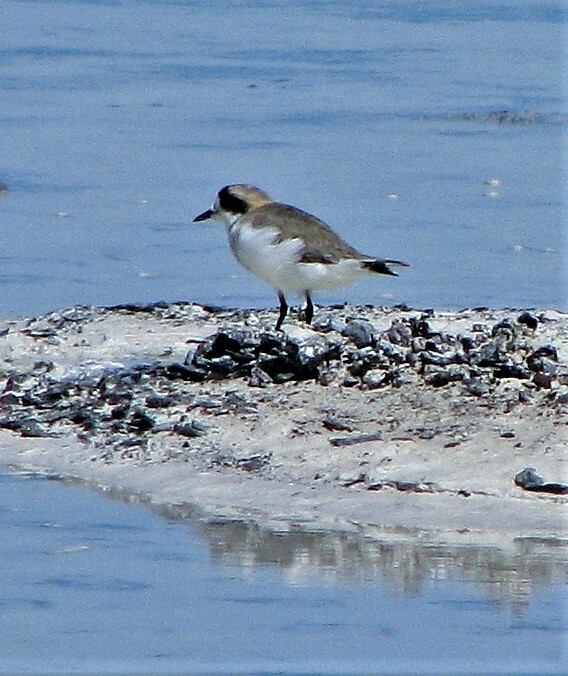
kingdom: Animalia
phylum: Chordata
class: Aves
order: Charadriiformes
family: Charadriidae
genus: Anarhynchus
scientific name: Anarhynchus
